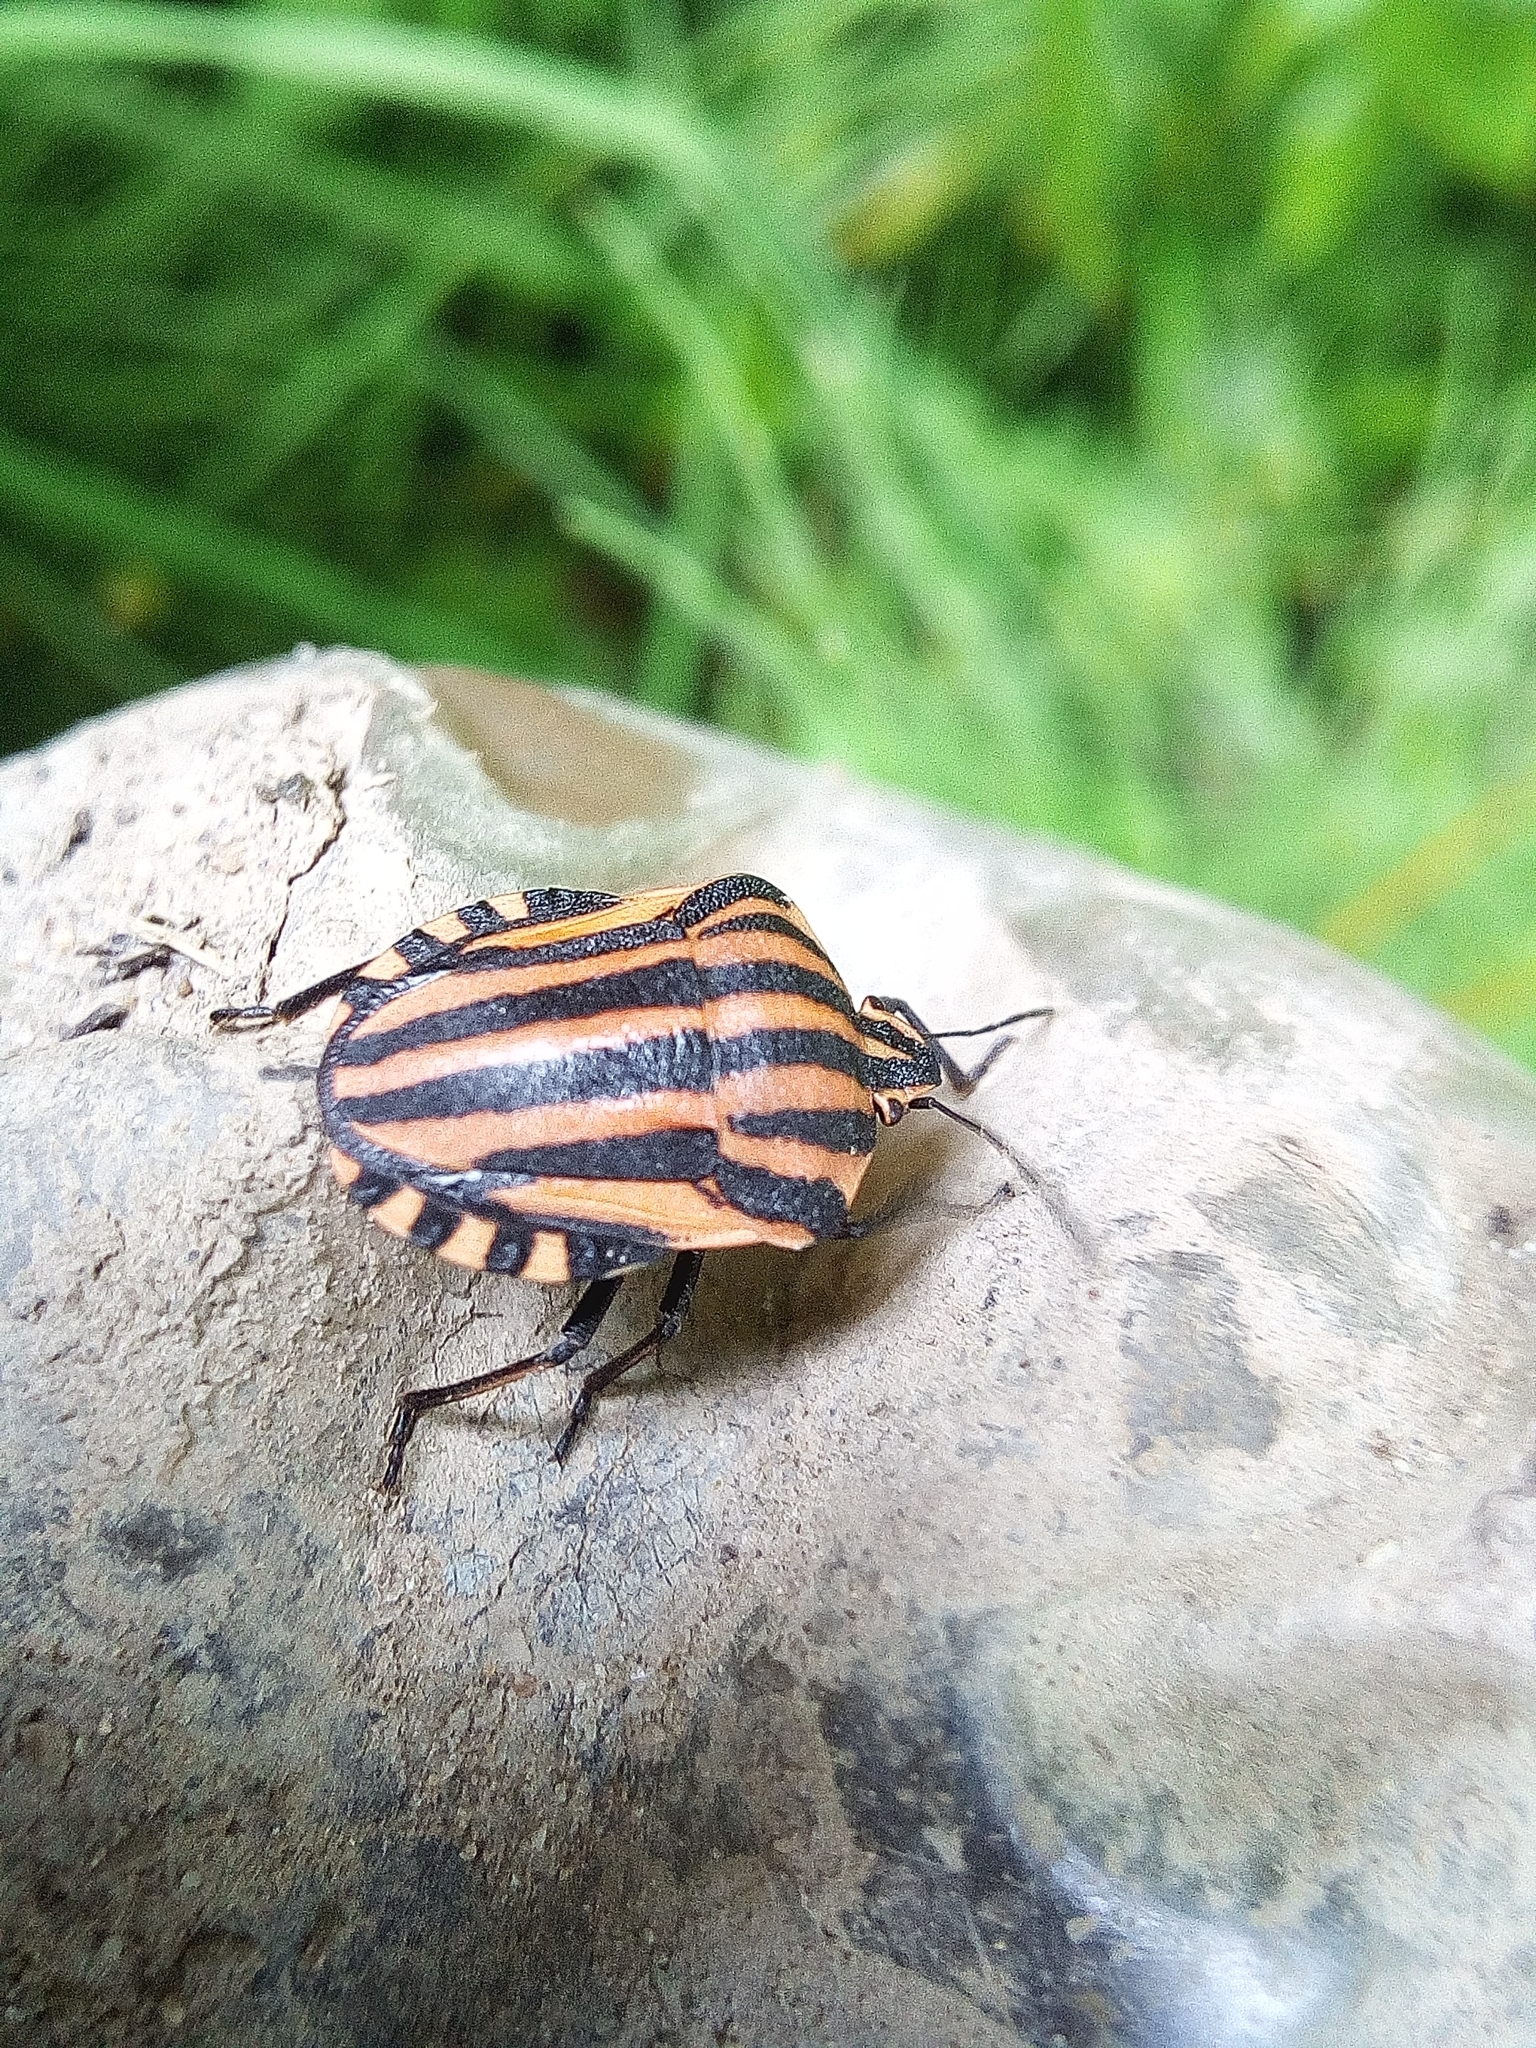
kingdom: Animalia
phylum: Arthropoda
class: Insecta
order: Hemiptera
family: Pentatomidae
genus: Graphosoma
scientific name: Graphosoma italicum
